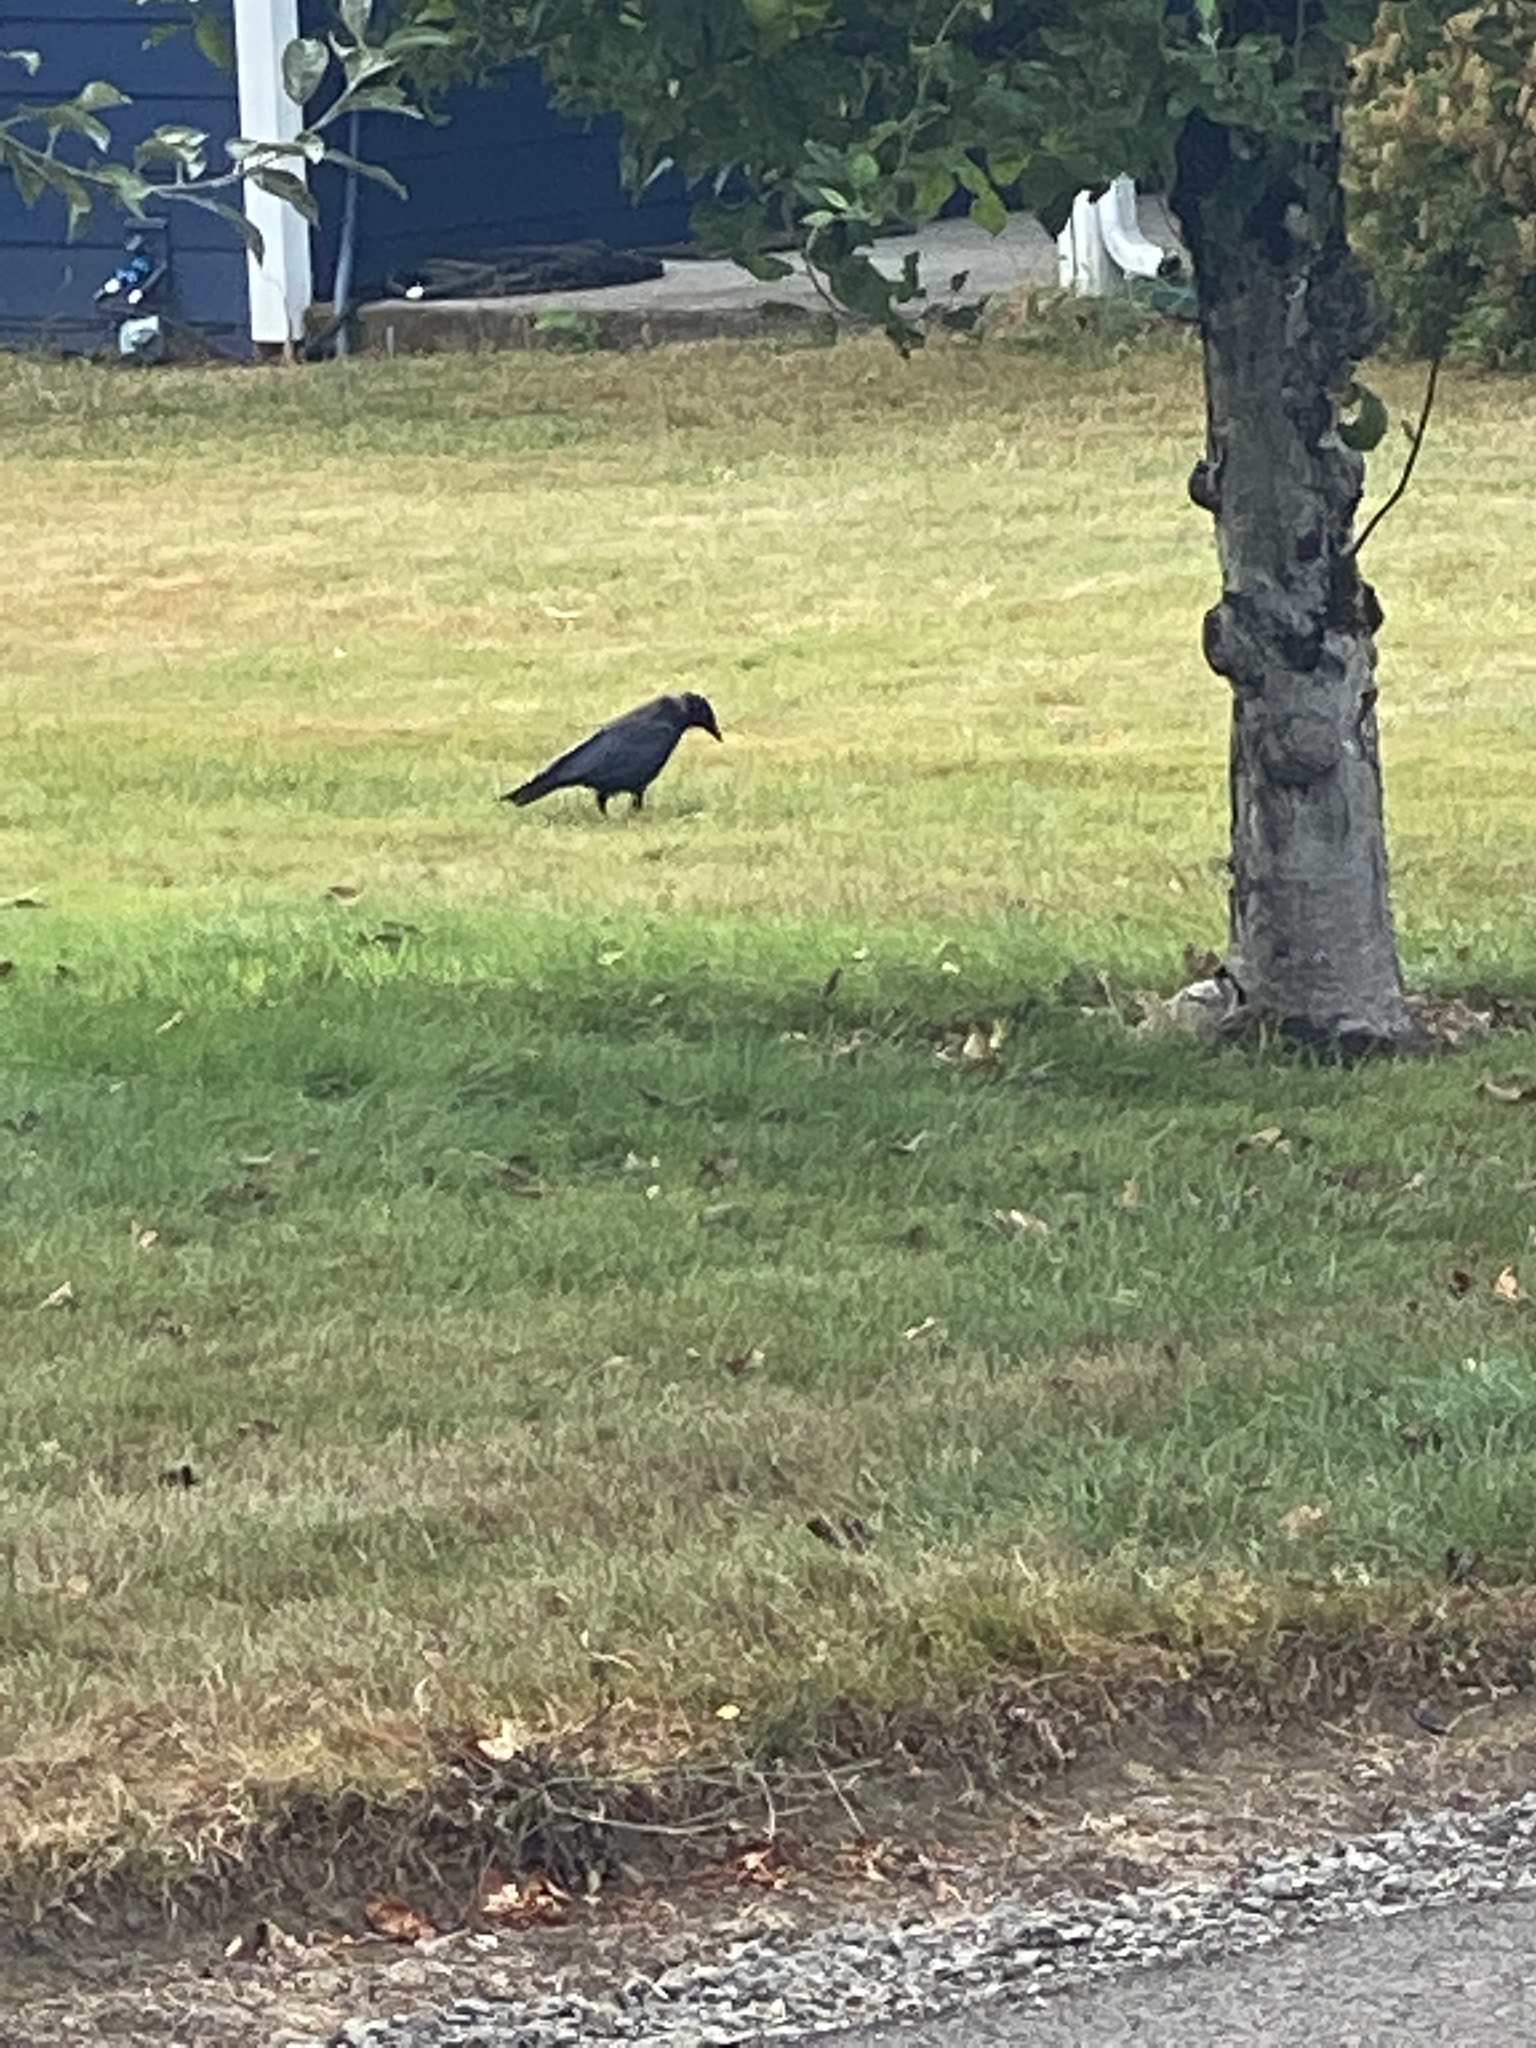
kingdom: Animalia
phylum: Chordata
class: Aves
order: Passeriformes
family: Corvidae
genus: Corvus
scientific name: Corvus brachyrhynchos
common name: American crow
